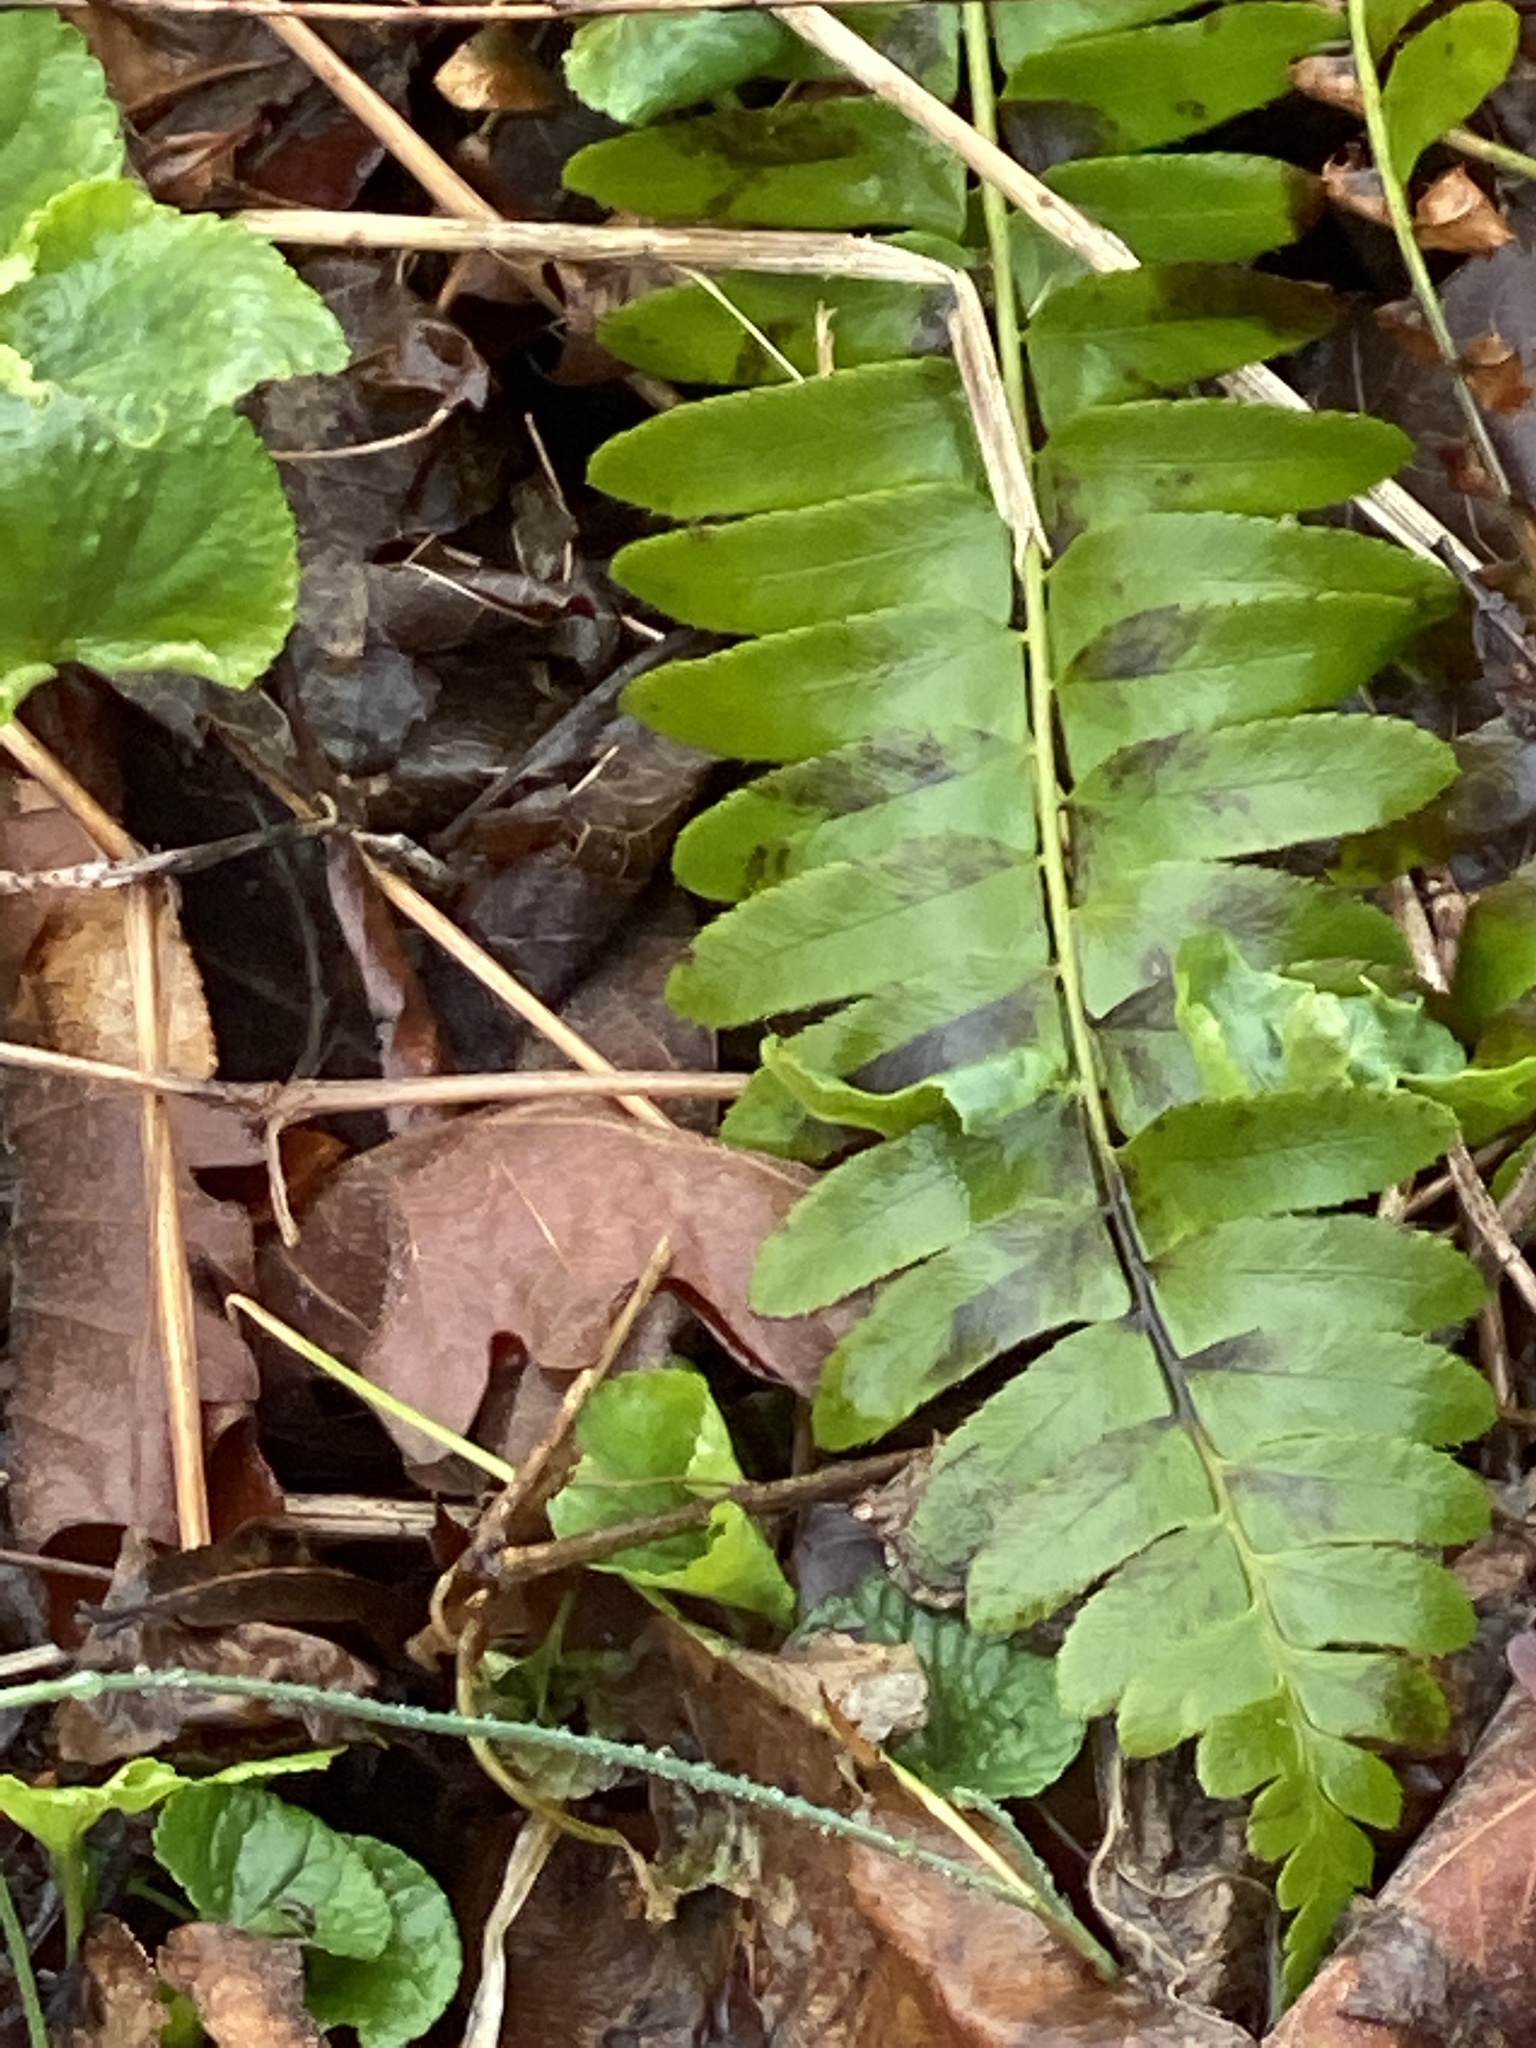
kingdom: Plantae
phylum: Tracheophyta
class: Polypodiopsida
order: Polypodiales
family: Dryopteridaceae
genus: Polystichum
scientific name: Polystichum acrostichoides
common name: Christmas fern
